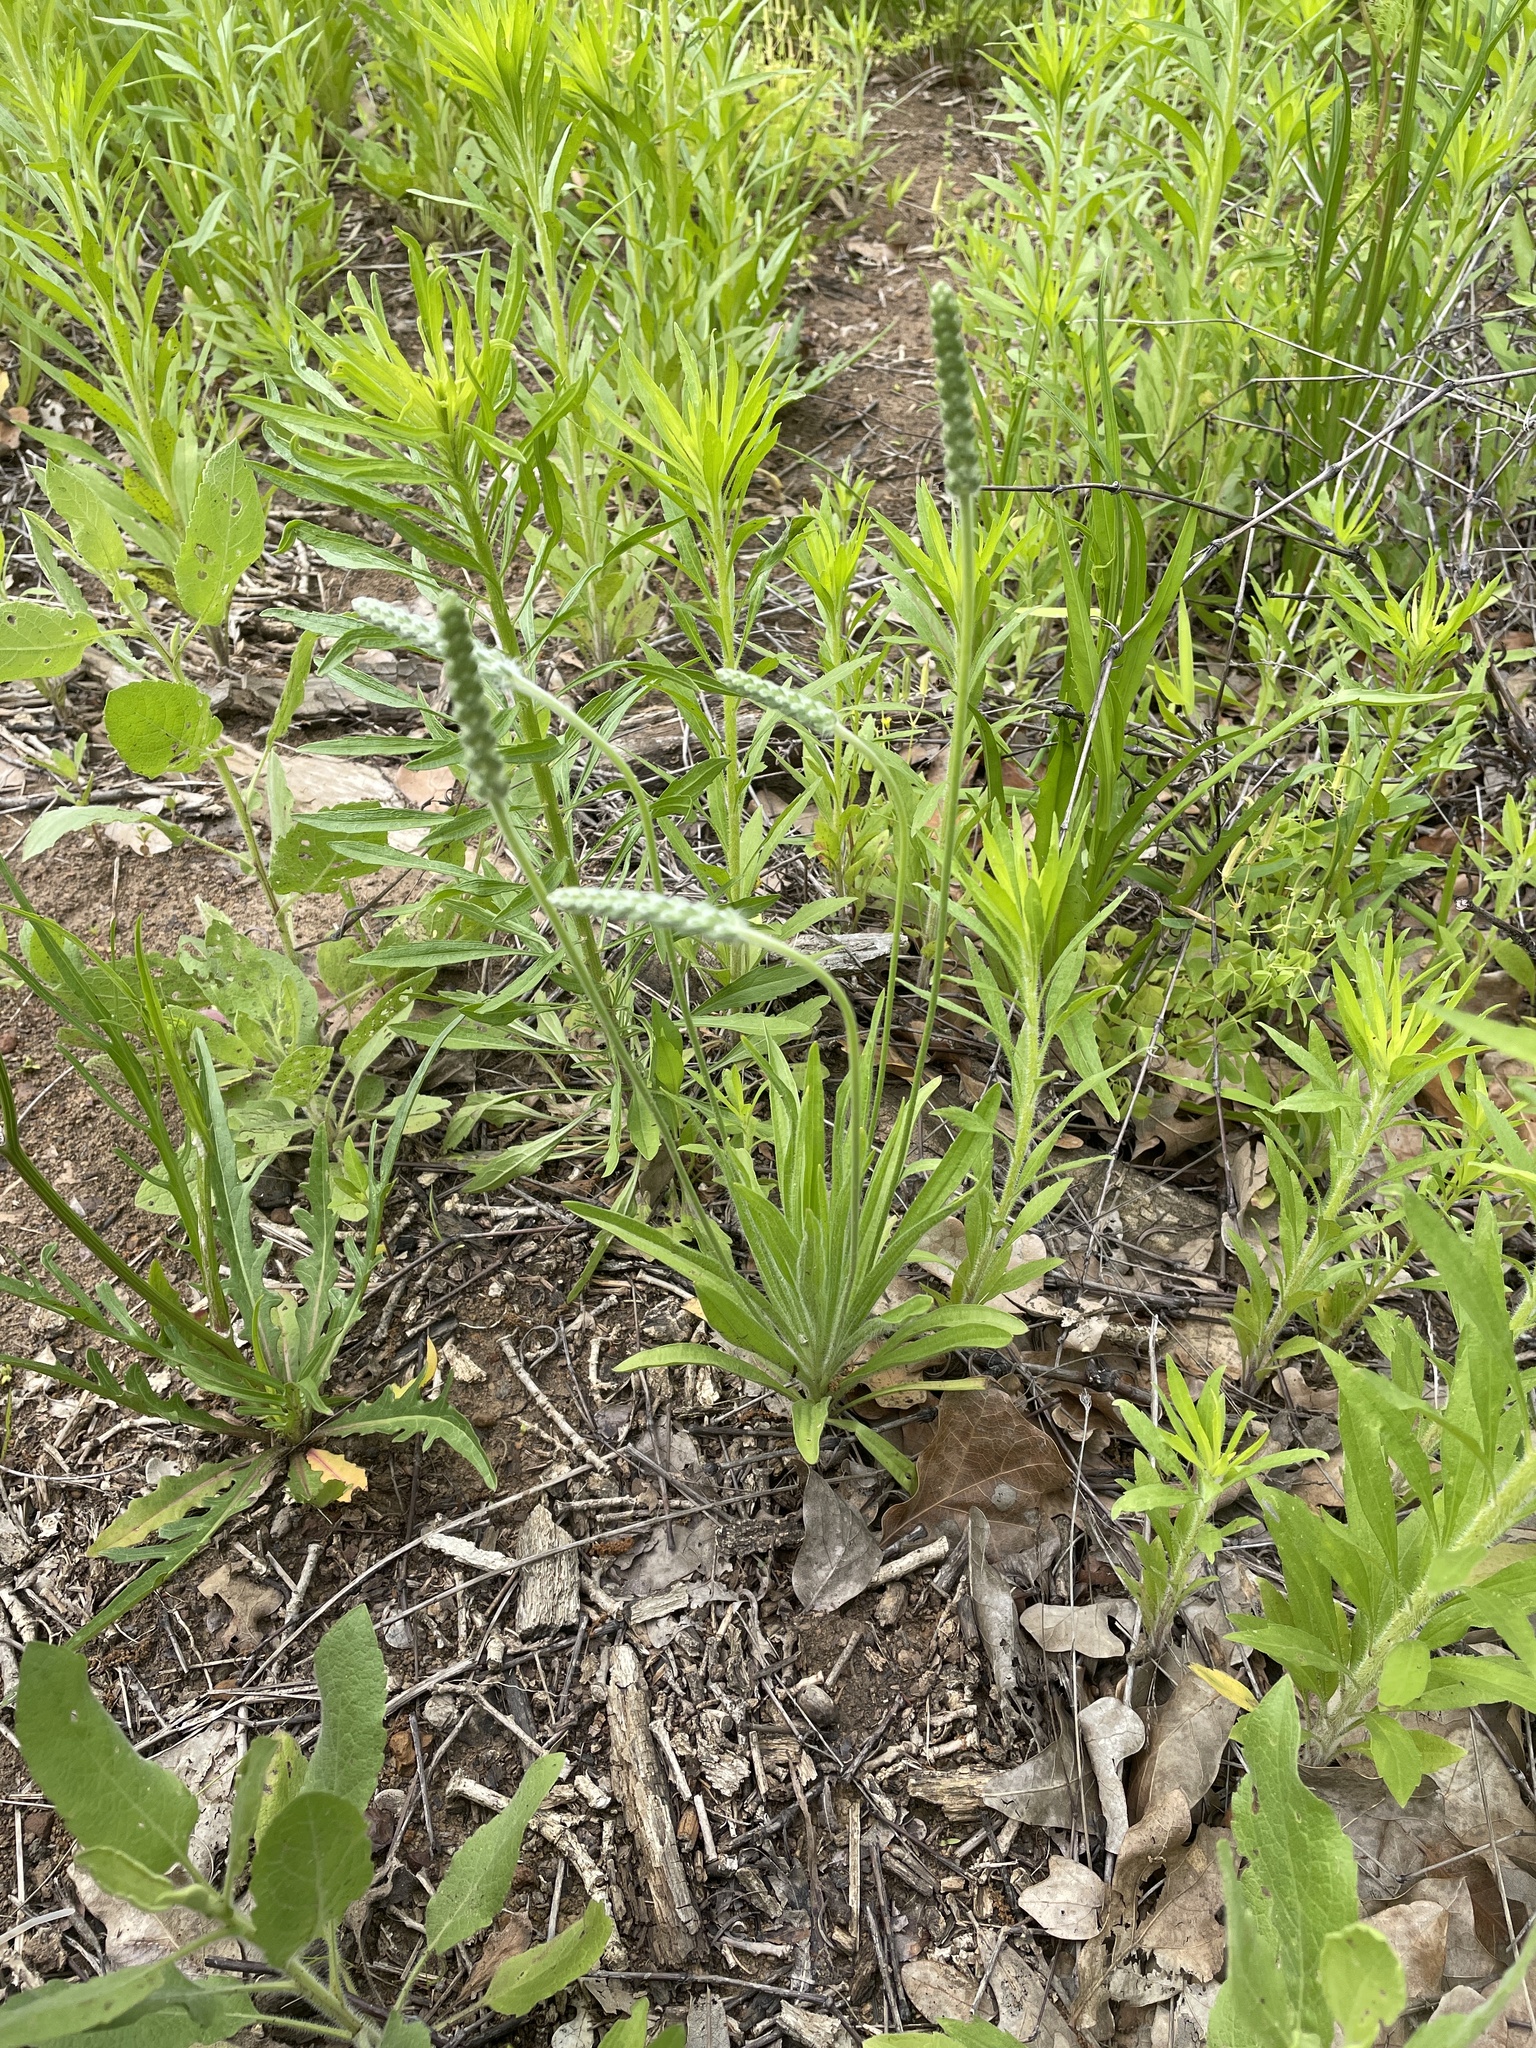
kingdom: Plantae
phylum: Tracheophyta
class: Magnoliopsida
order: Lamiales
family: Plantaginaceae
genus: Plantago
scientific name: Plantago wrightiana
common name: Wright's plantain
